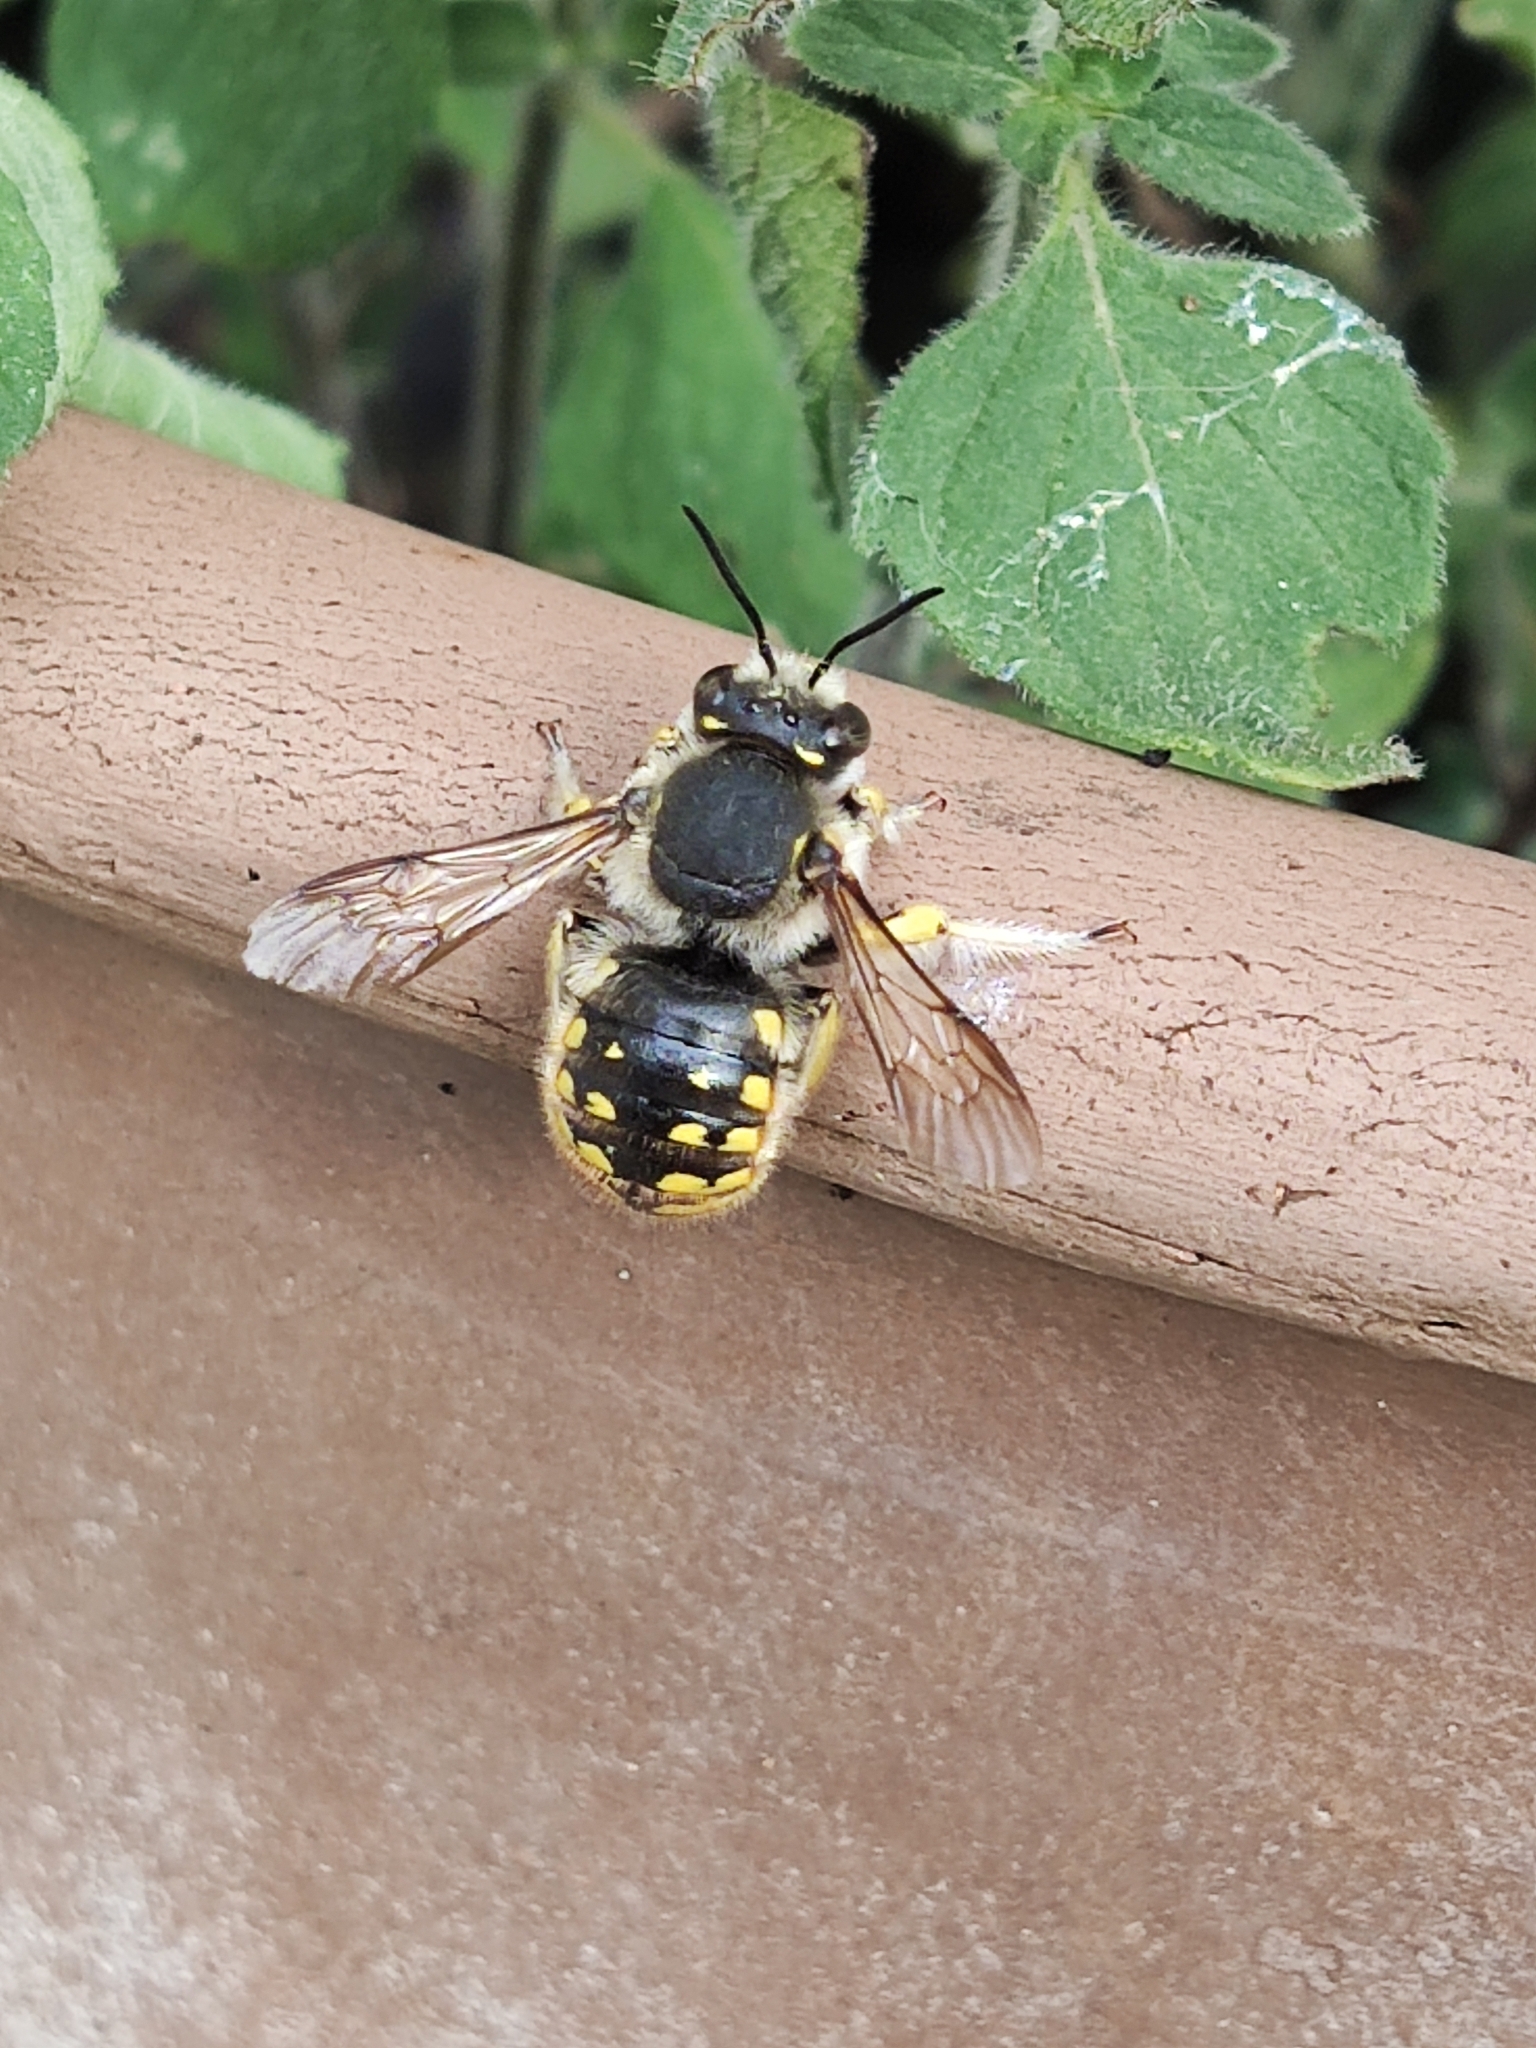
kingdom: Animalia
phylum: Arthropoda
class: Insecta
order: Hymenoptera
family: Megachilidae
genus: Anthidium
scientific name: Anthidium manicatum
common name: Wool carder bee
